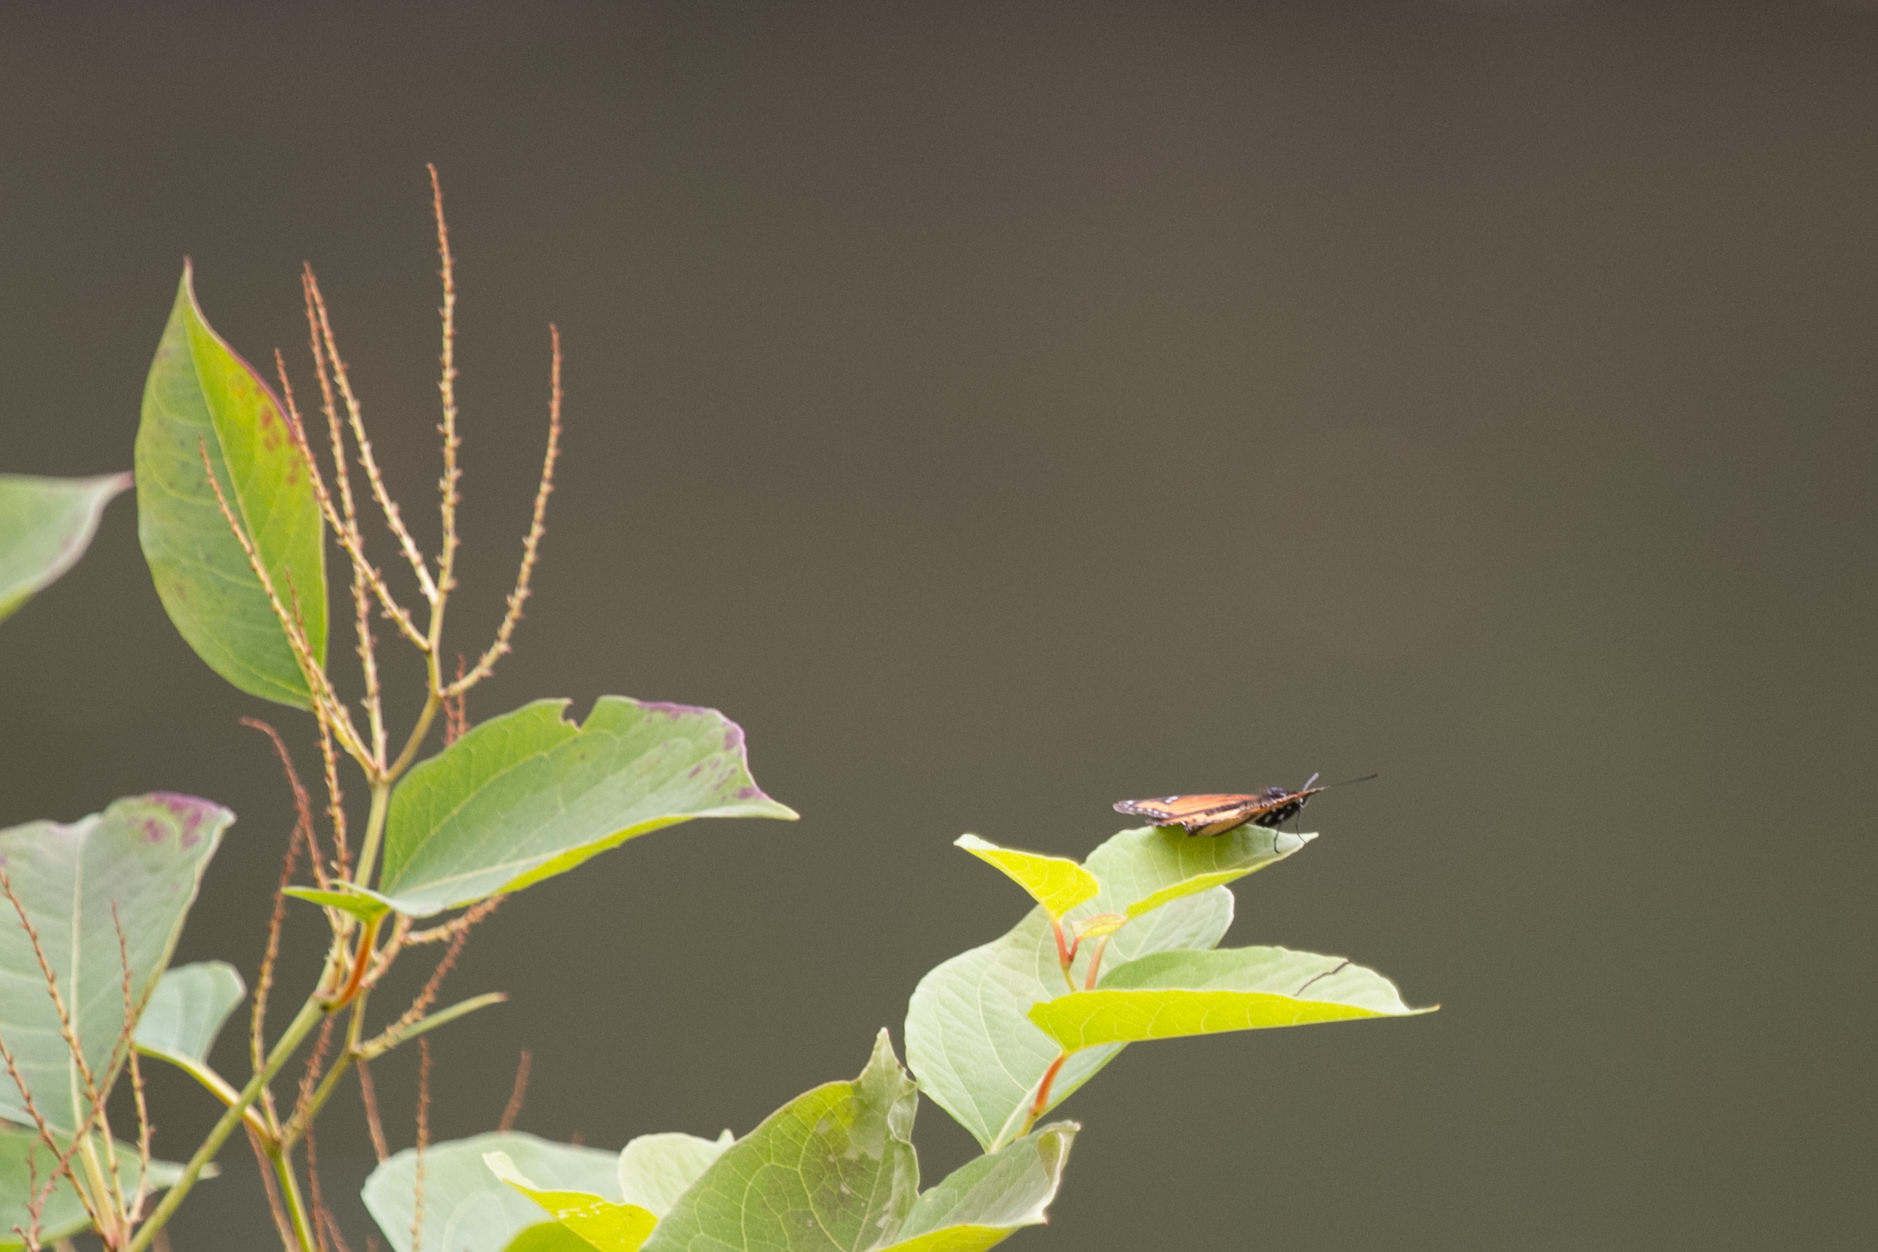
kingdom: Animalia
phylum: Arthropoda
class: Insecta
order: Lepidoptera
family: Nymphalidae
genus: Limenitis
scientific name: Limenitis archippus
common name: Viceroy
